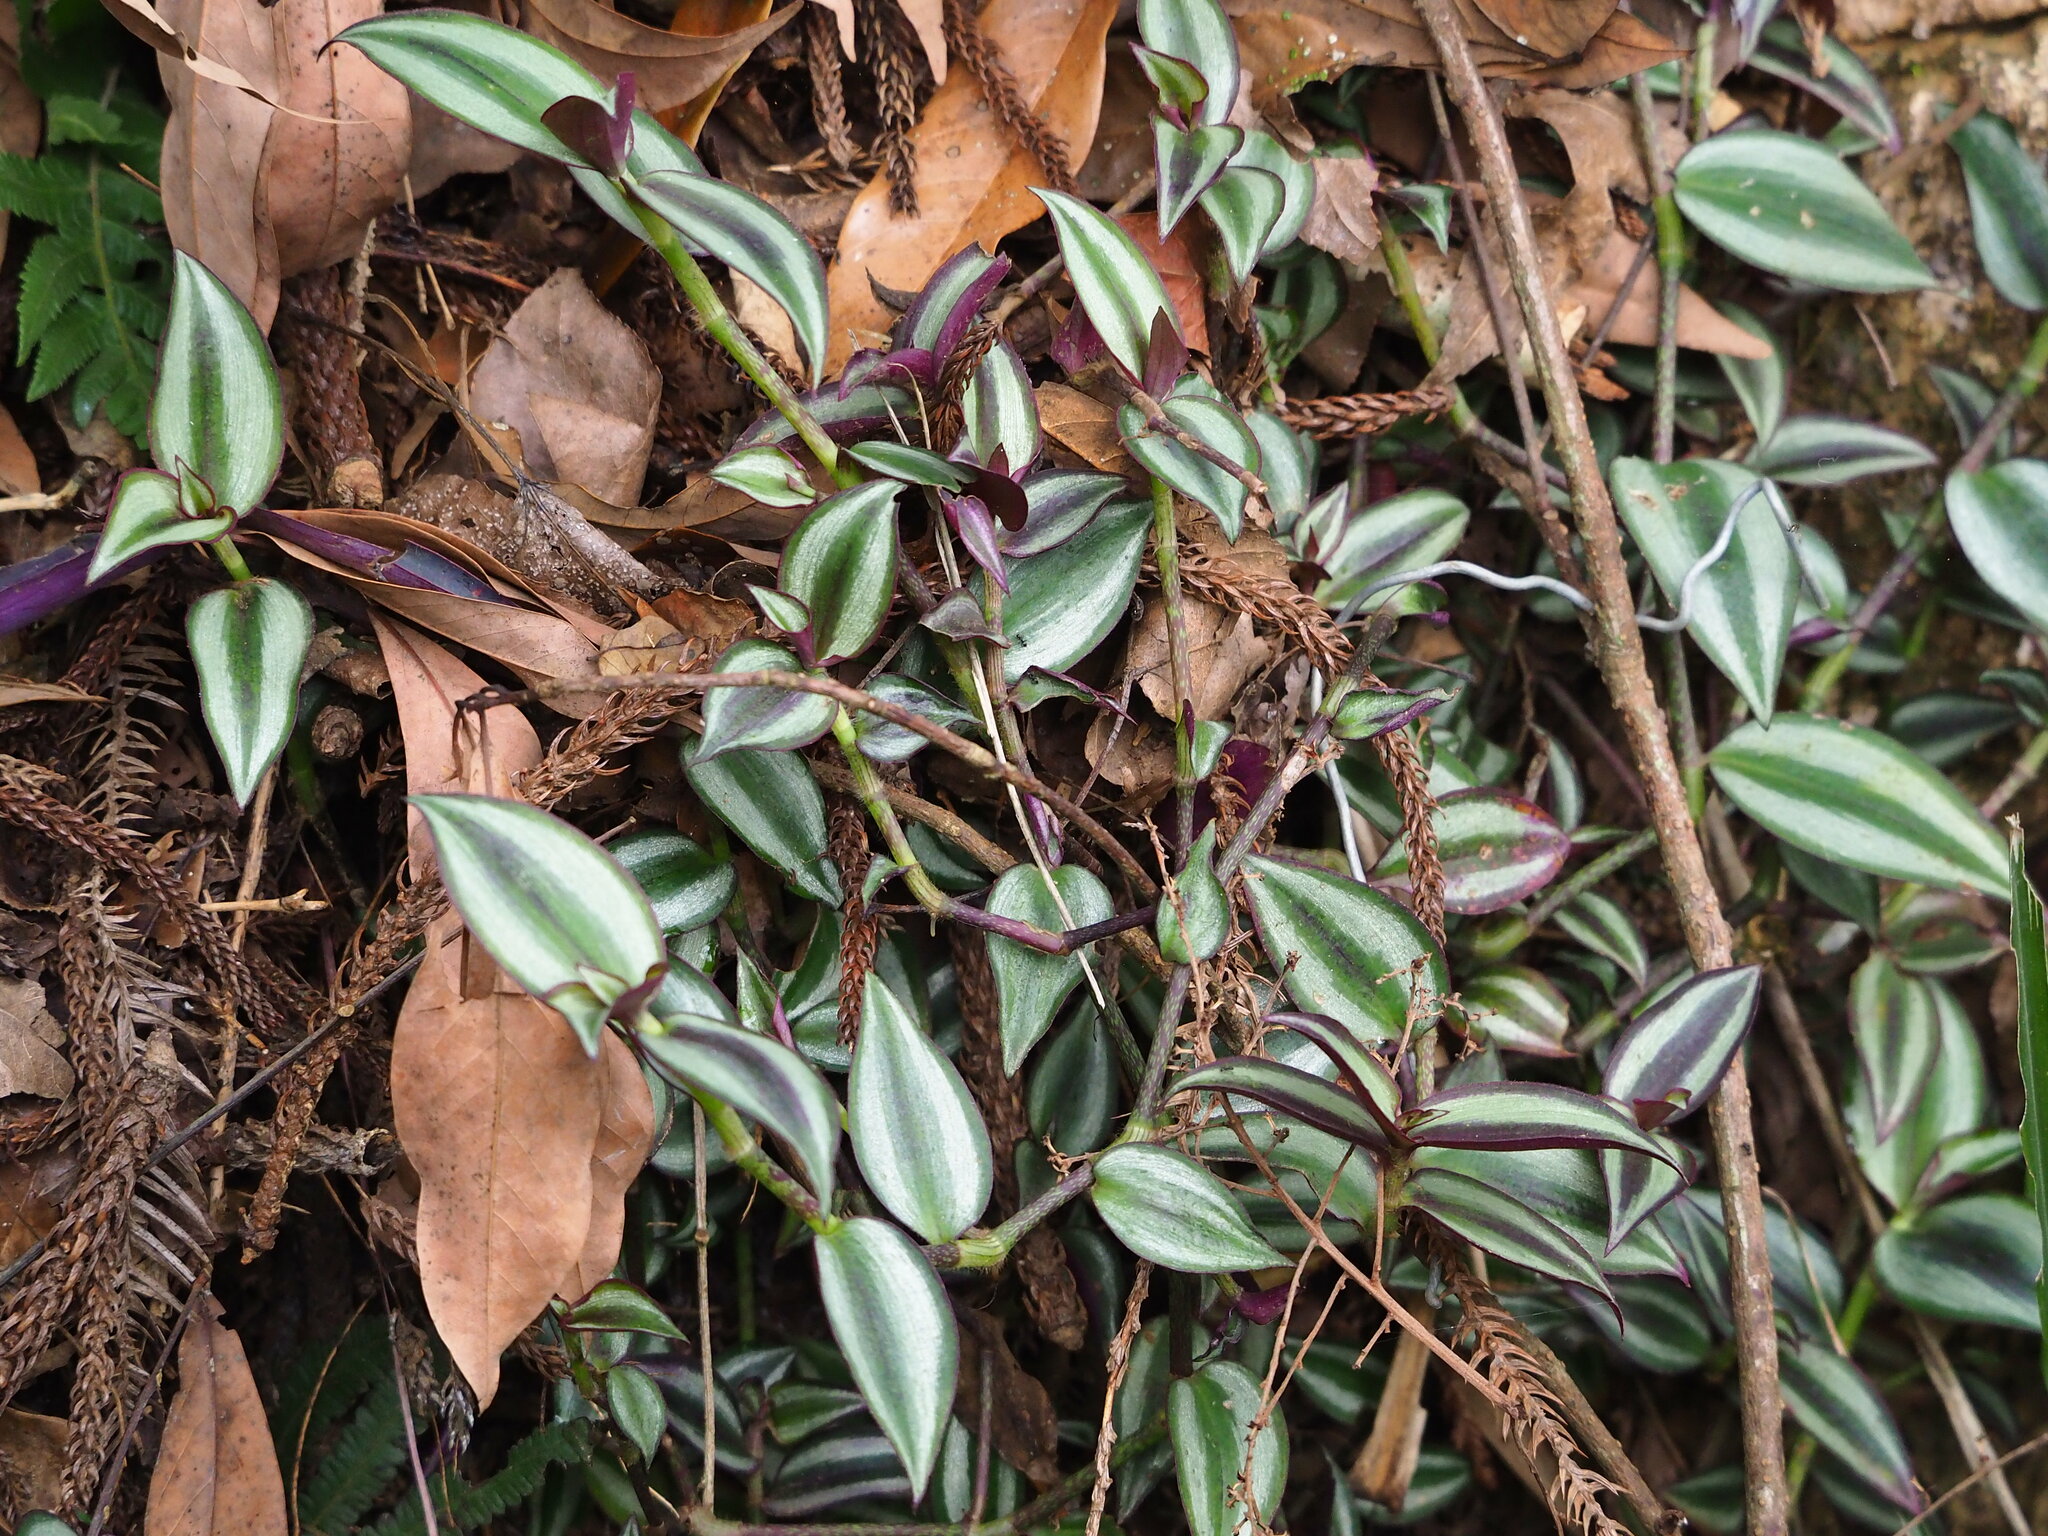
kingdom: Plantae
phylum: Tracheophyta
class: Liliopsida
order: Commelinales
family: Commelinaceae
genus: Tradescantia
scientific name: Tradescantia zebrina
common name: Inchplant
